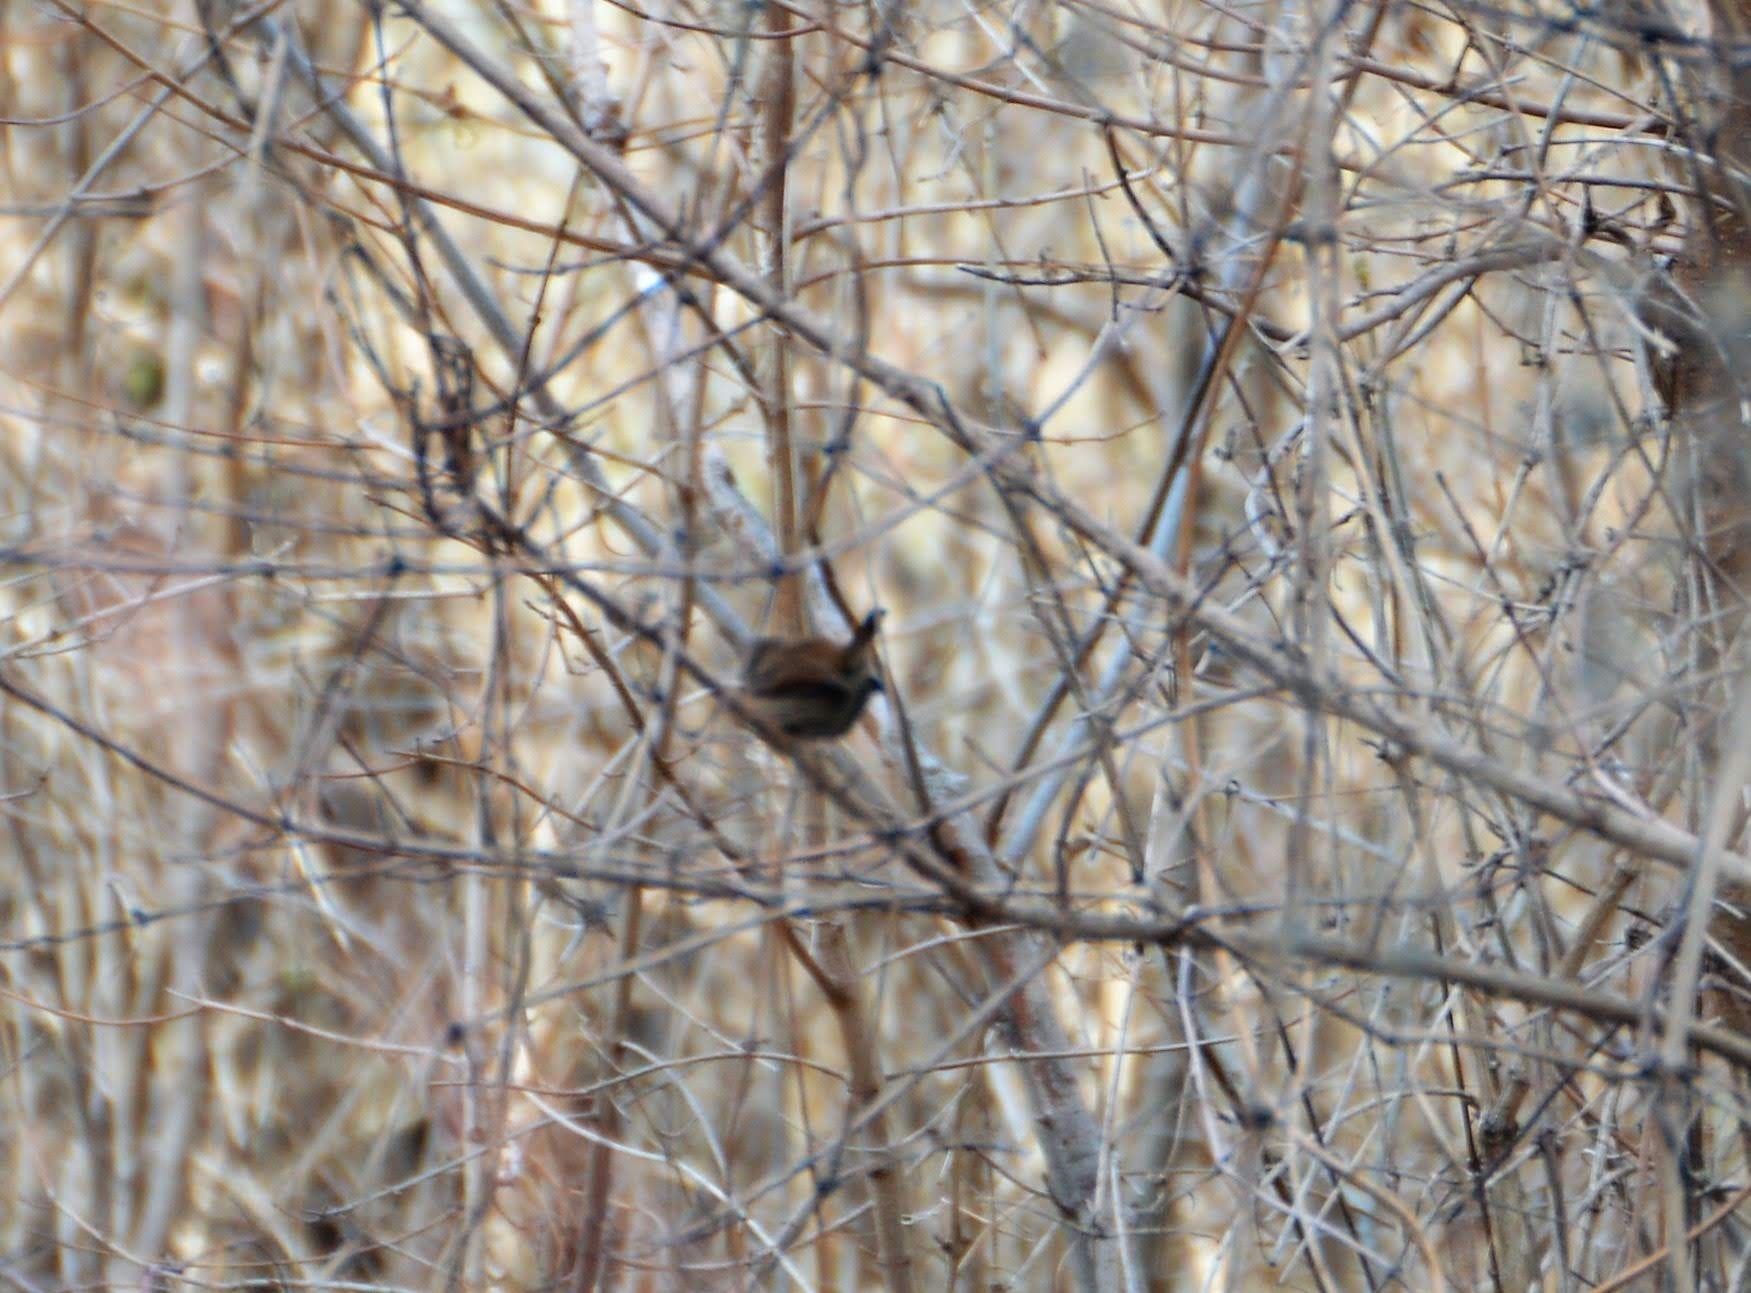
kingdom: Animalia
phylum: Chordata
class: Aves
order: Passeriformes
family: Troglodytidae
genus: Troglodytes
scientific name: Troglodytes troglodytes
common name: Eurasian wren
